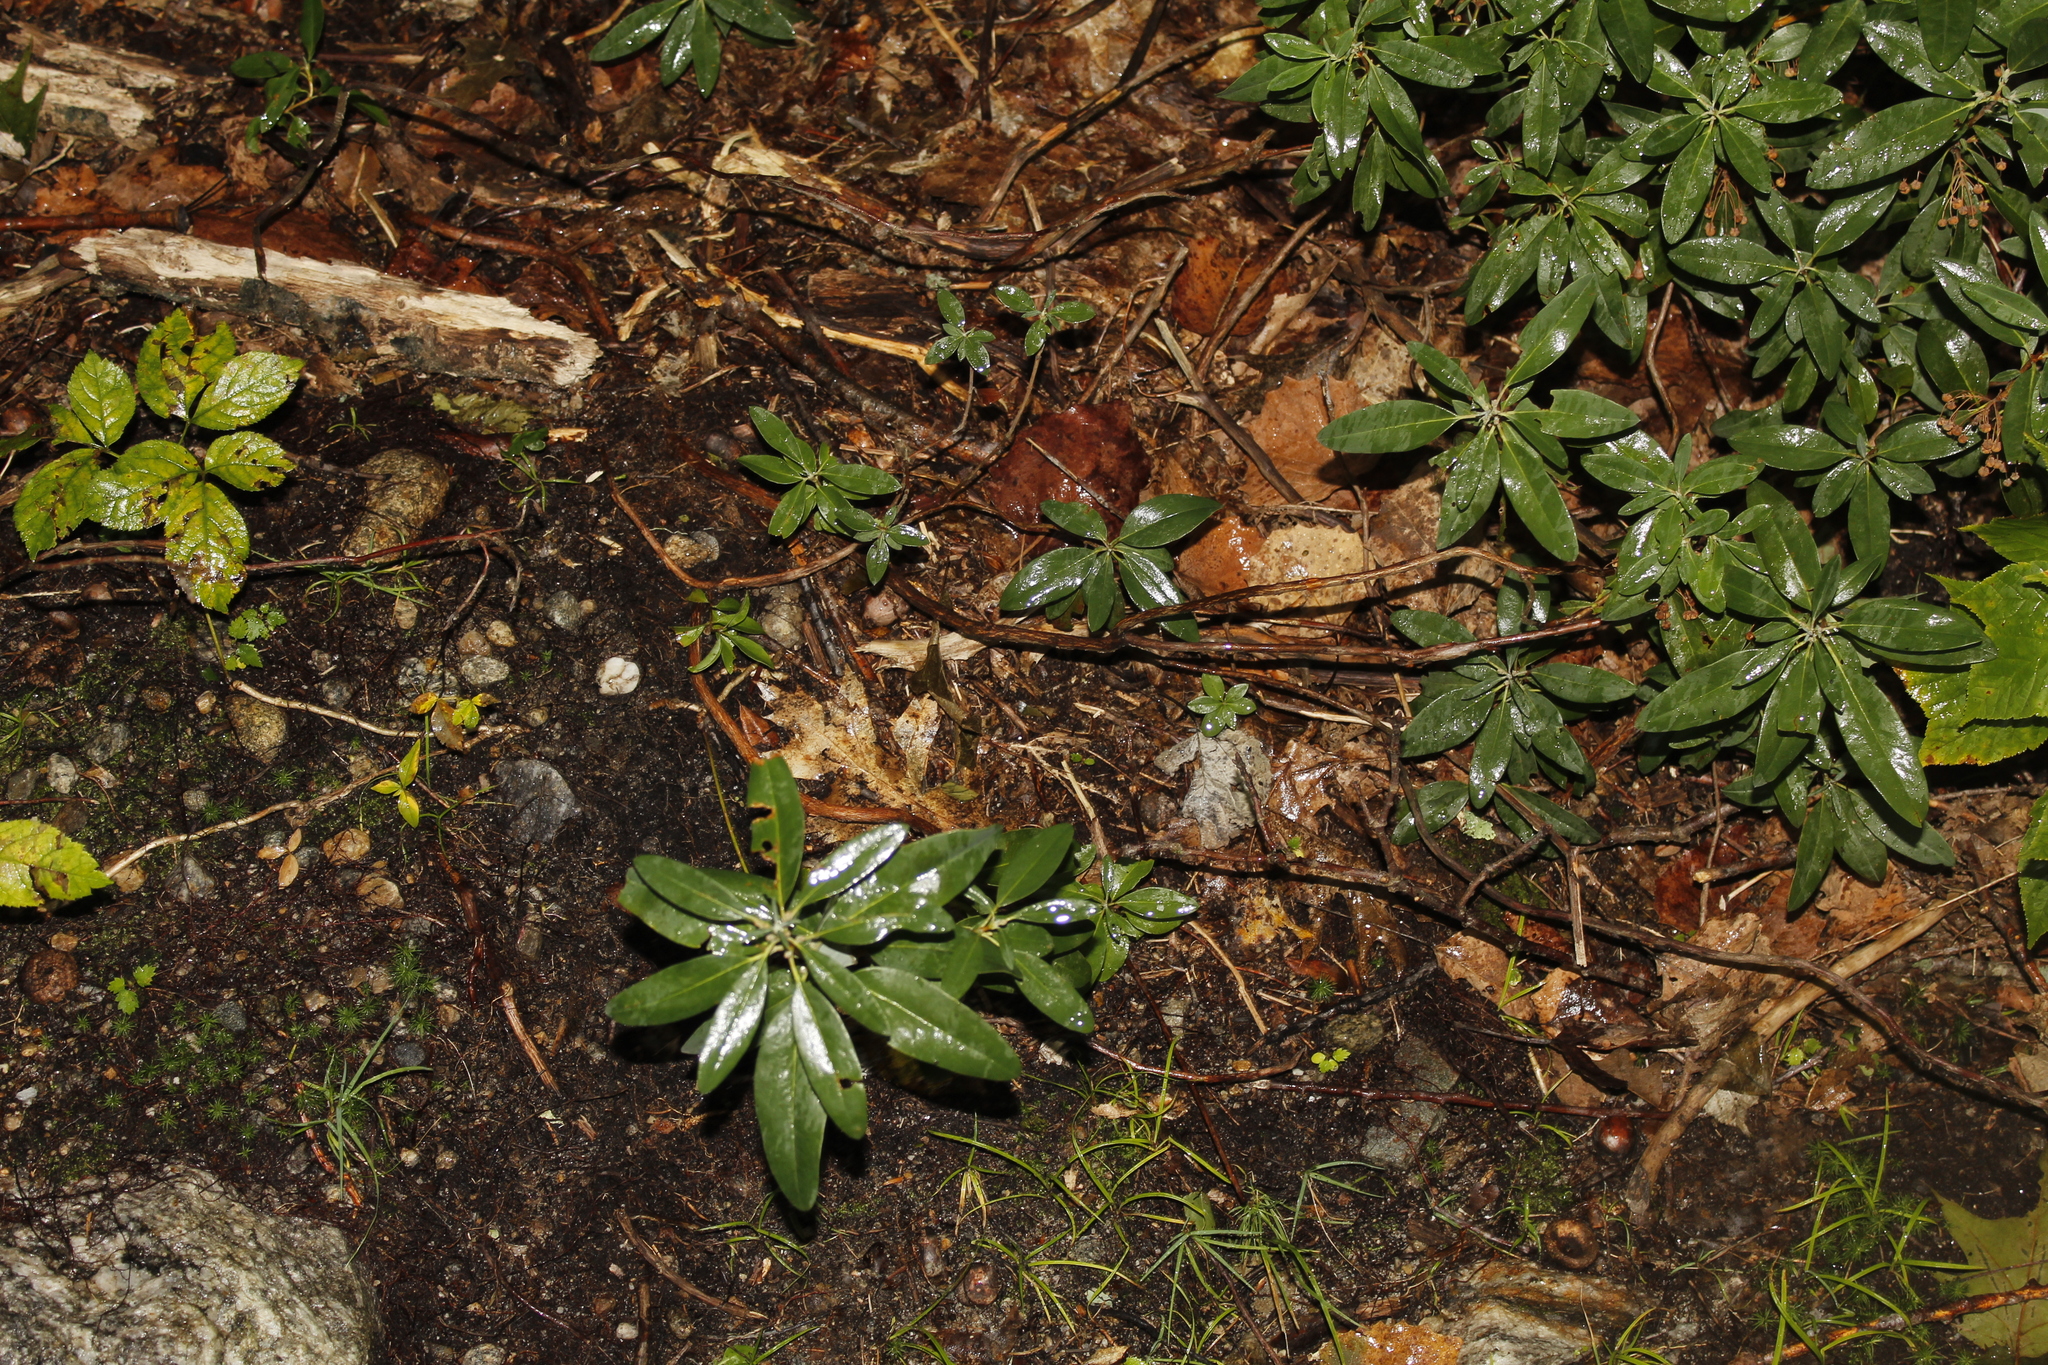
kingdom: Plantae
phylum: Tracheophyta
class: Magnoliopsida
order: Ericales
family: Ericaceae
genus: Kalmia
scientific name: Kalmia angustifolia
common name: Sheep-laurel
